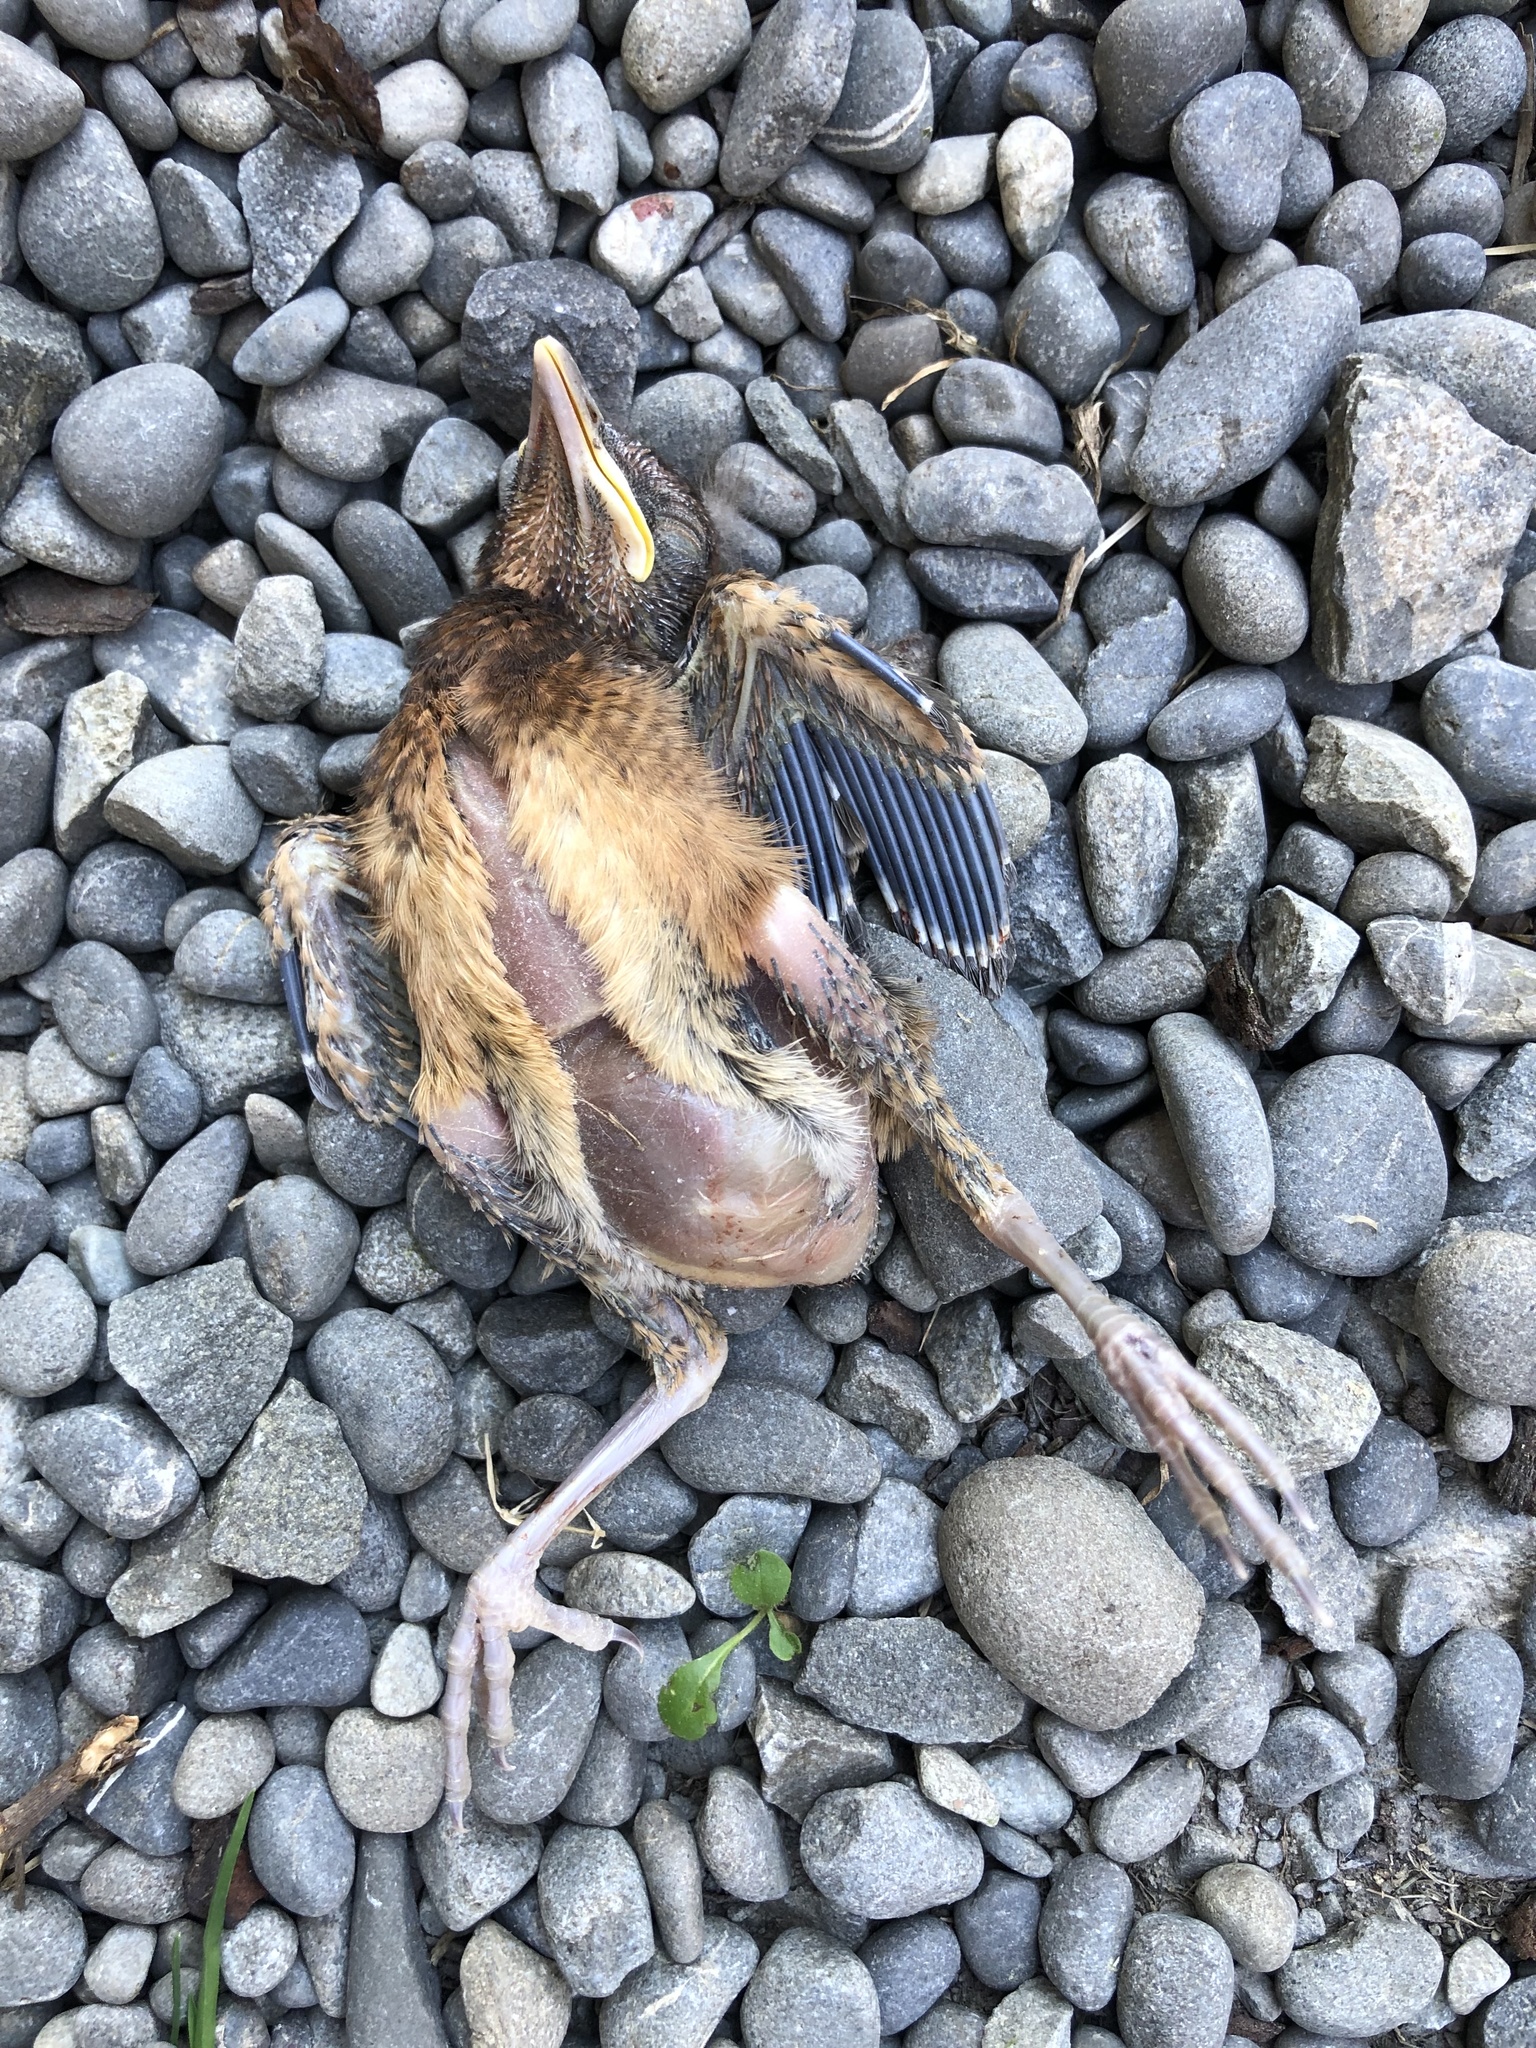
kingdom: Animalia
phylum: Chordata
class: Aves
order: Passeriformes
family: Turdidae
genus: Turdus
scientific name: Turdus merula
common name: Common blackbird
